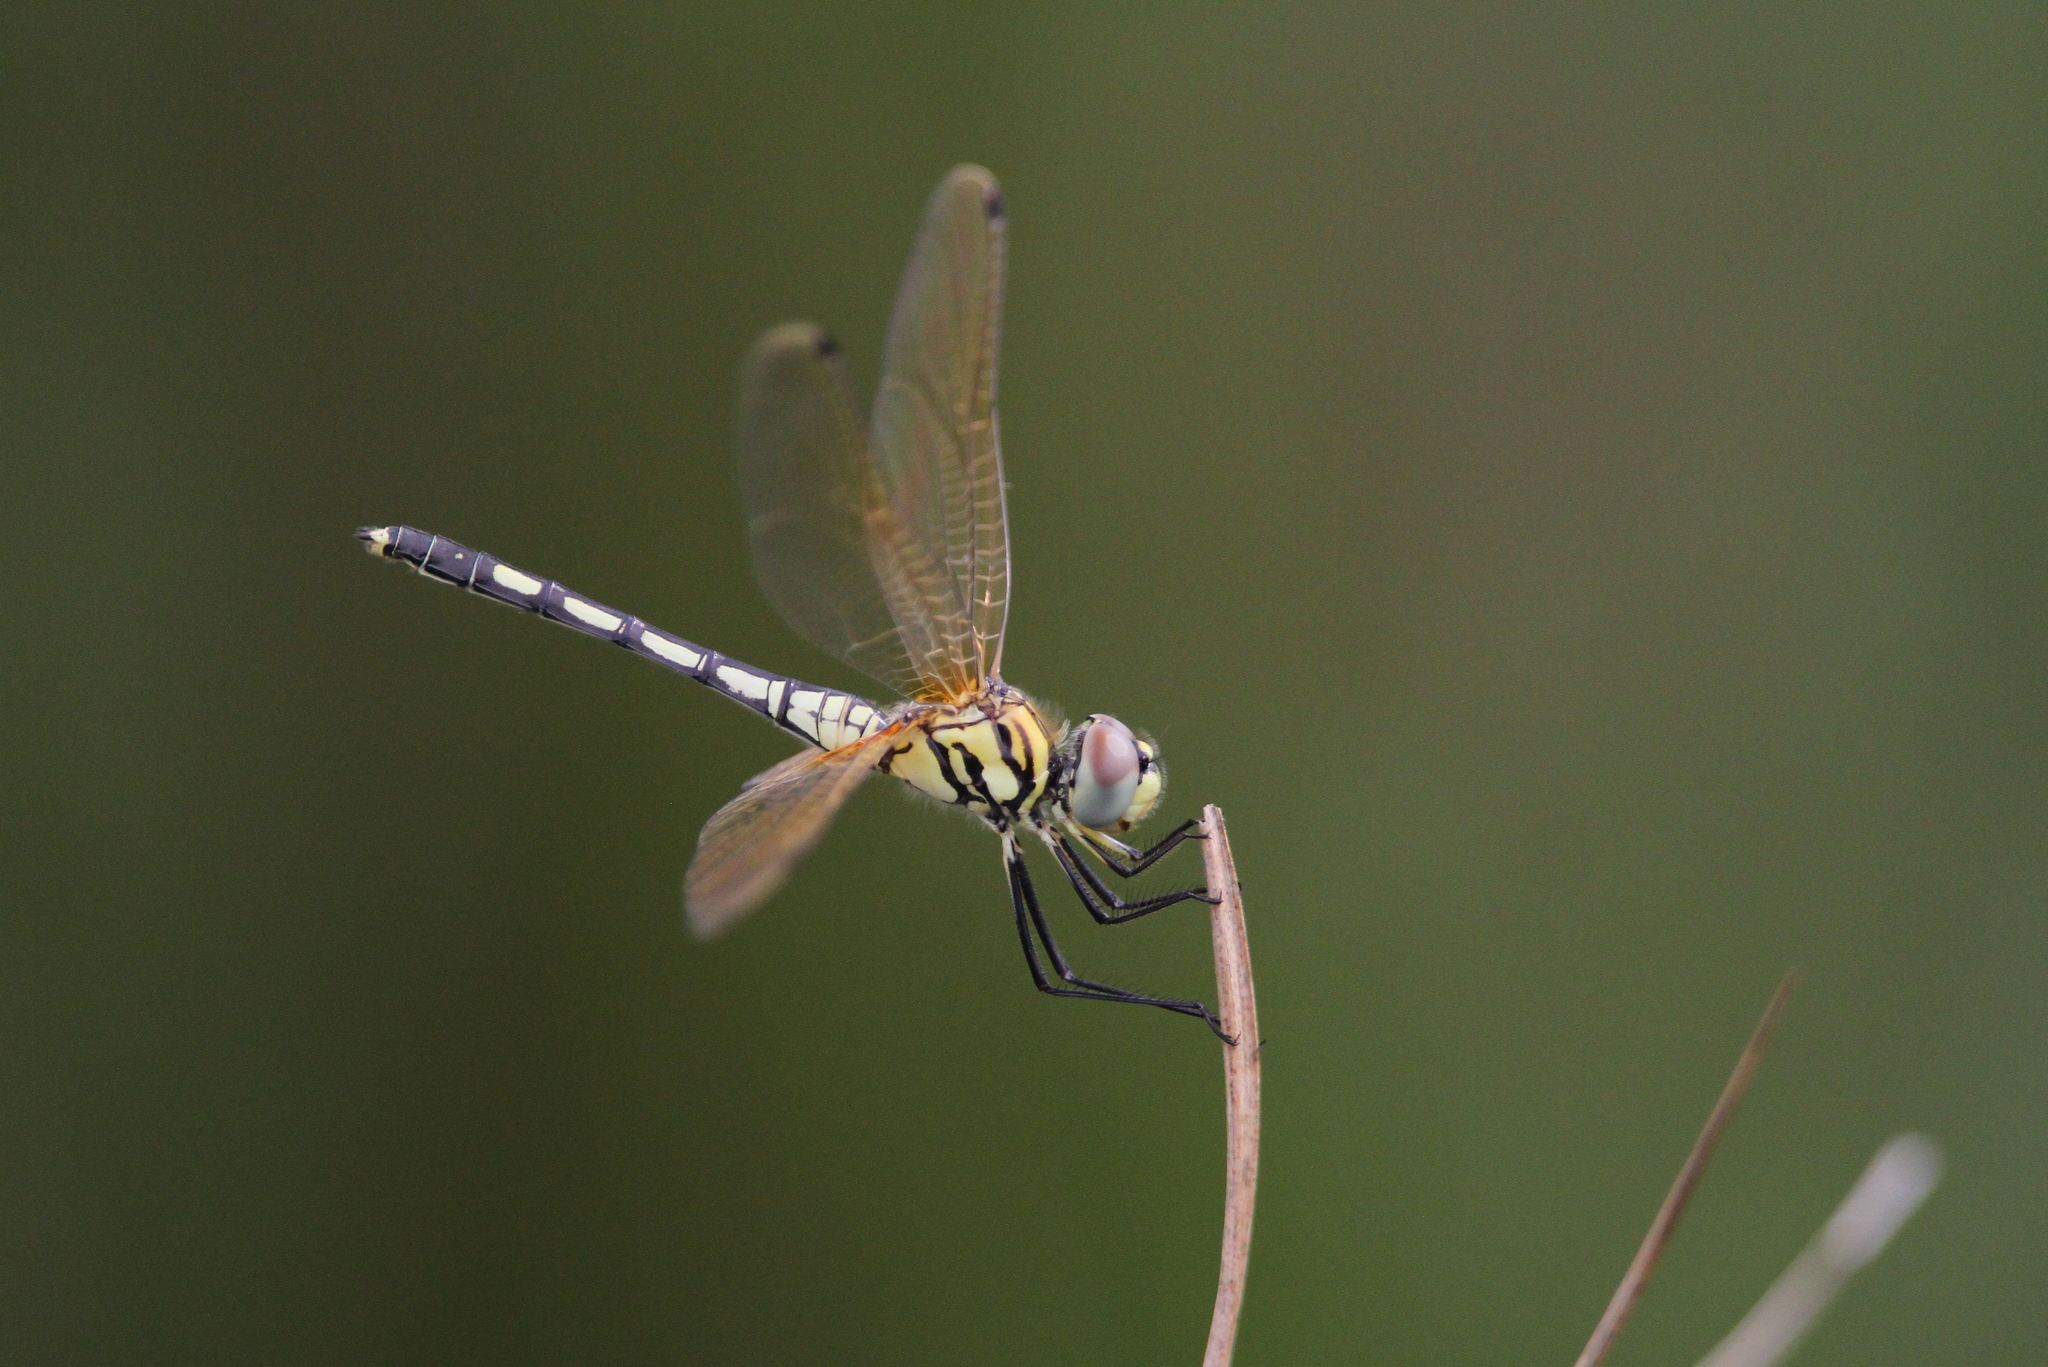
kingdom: Animalia
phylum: Arthropoda
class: Insecta
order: Odonata
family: Libellulidae
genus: Trithemis
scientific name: Trithemis pallidinervis
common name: Dancing dropwing
